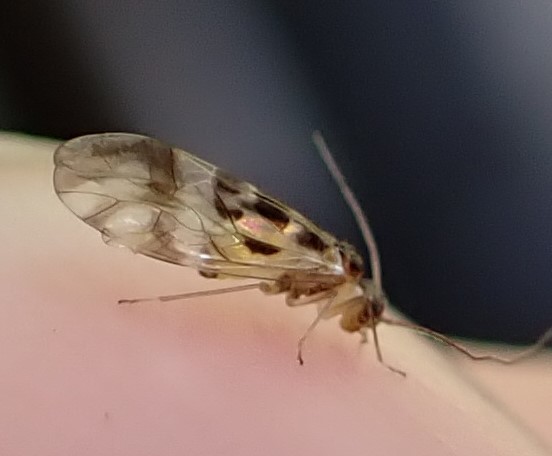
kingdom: Animalia
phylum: Arthropoda
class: Insecta
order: Psocodea
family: Stenopsocidae
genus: Graphopsocus
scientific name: Graphopsocus cruciatus
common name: Lizard bark louse
